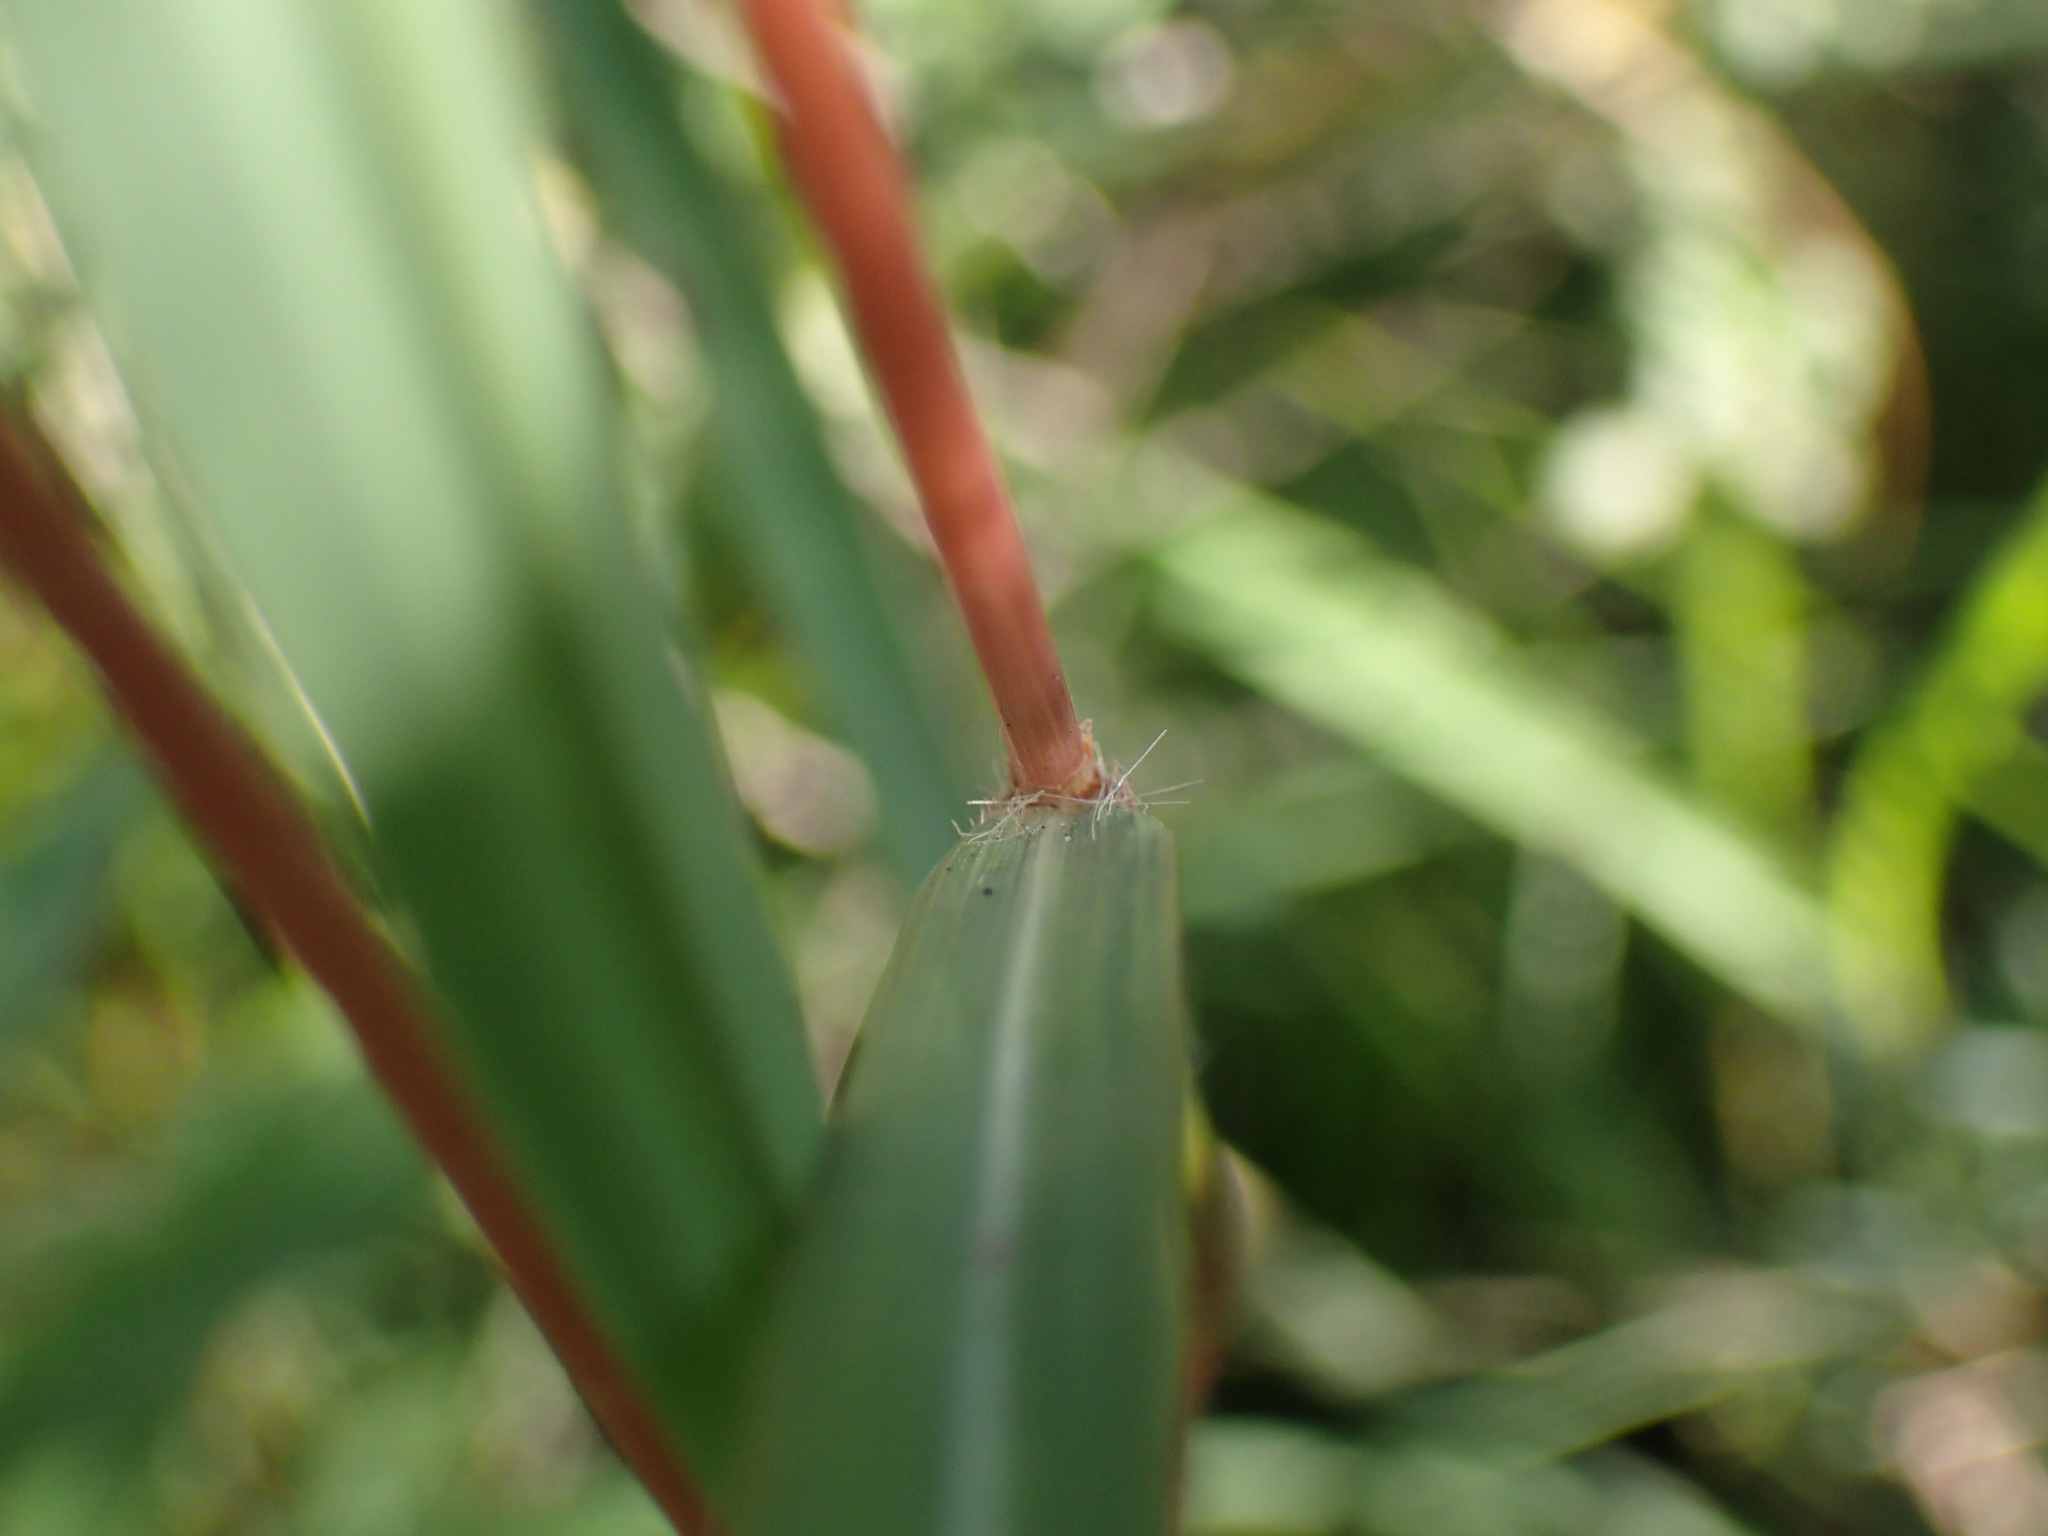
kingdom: Plantae
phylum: Tracheophyta
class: Liliopsida
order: Poales
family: Poaceae
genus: Themeda
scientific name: Themeda triandra
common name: Kangaroo grass
